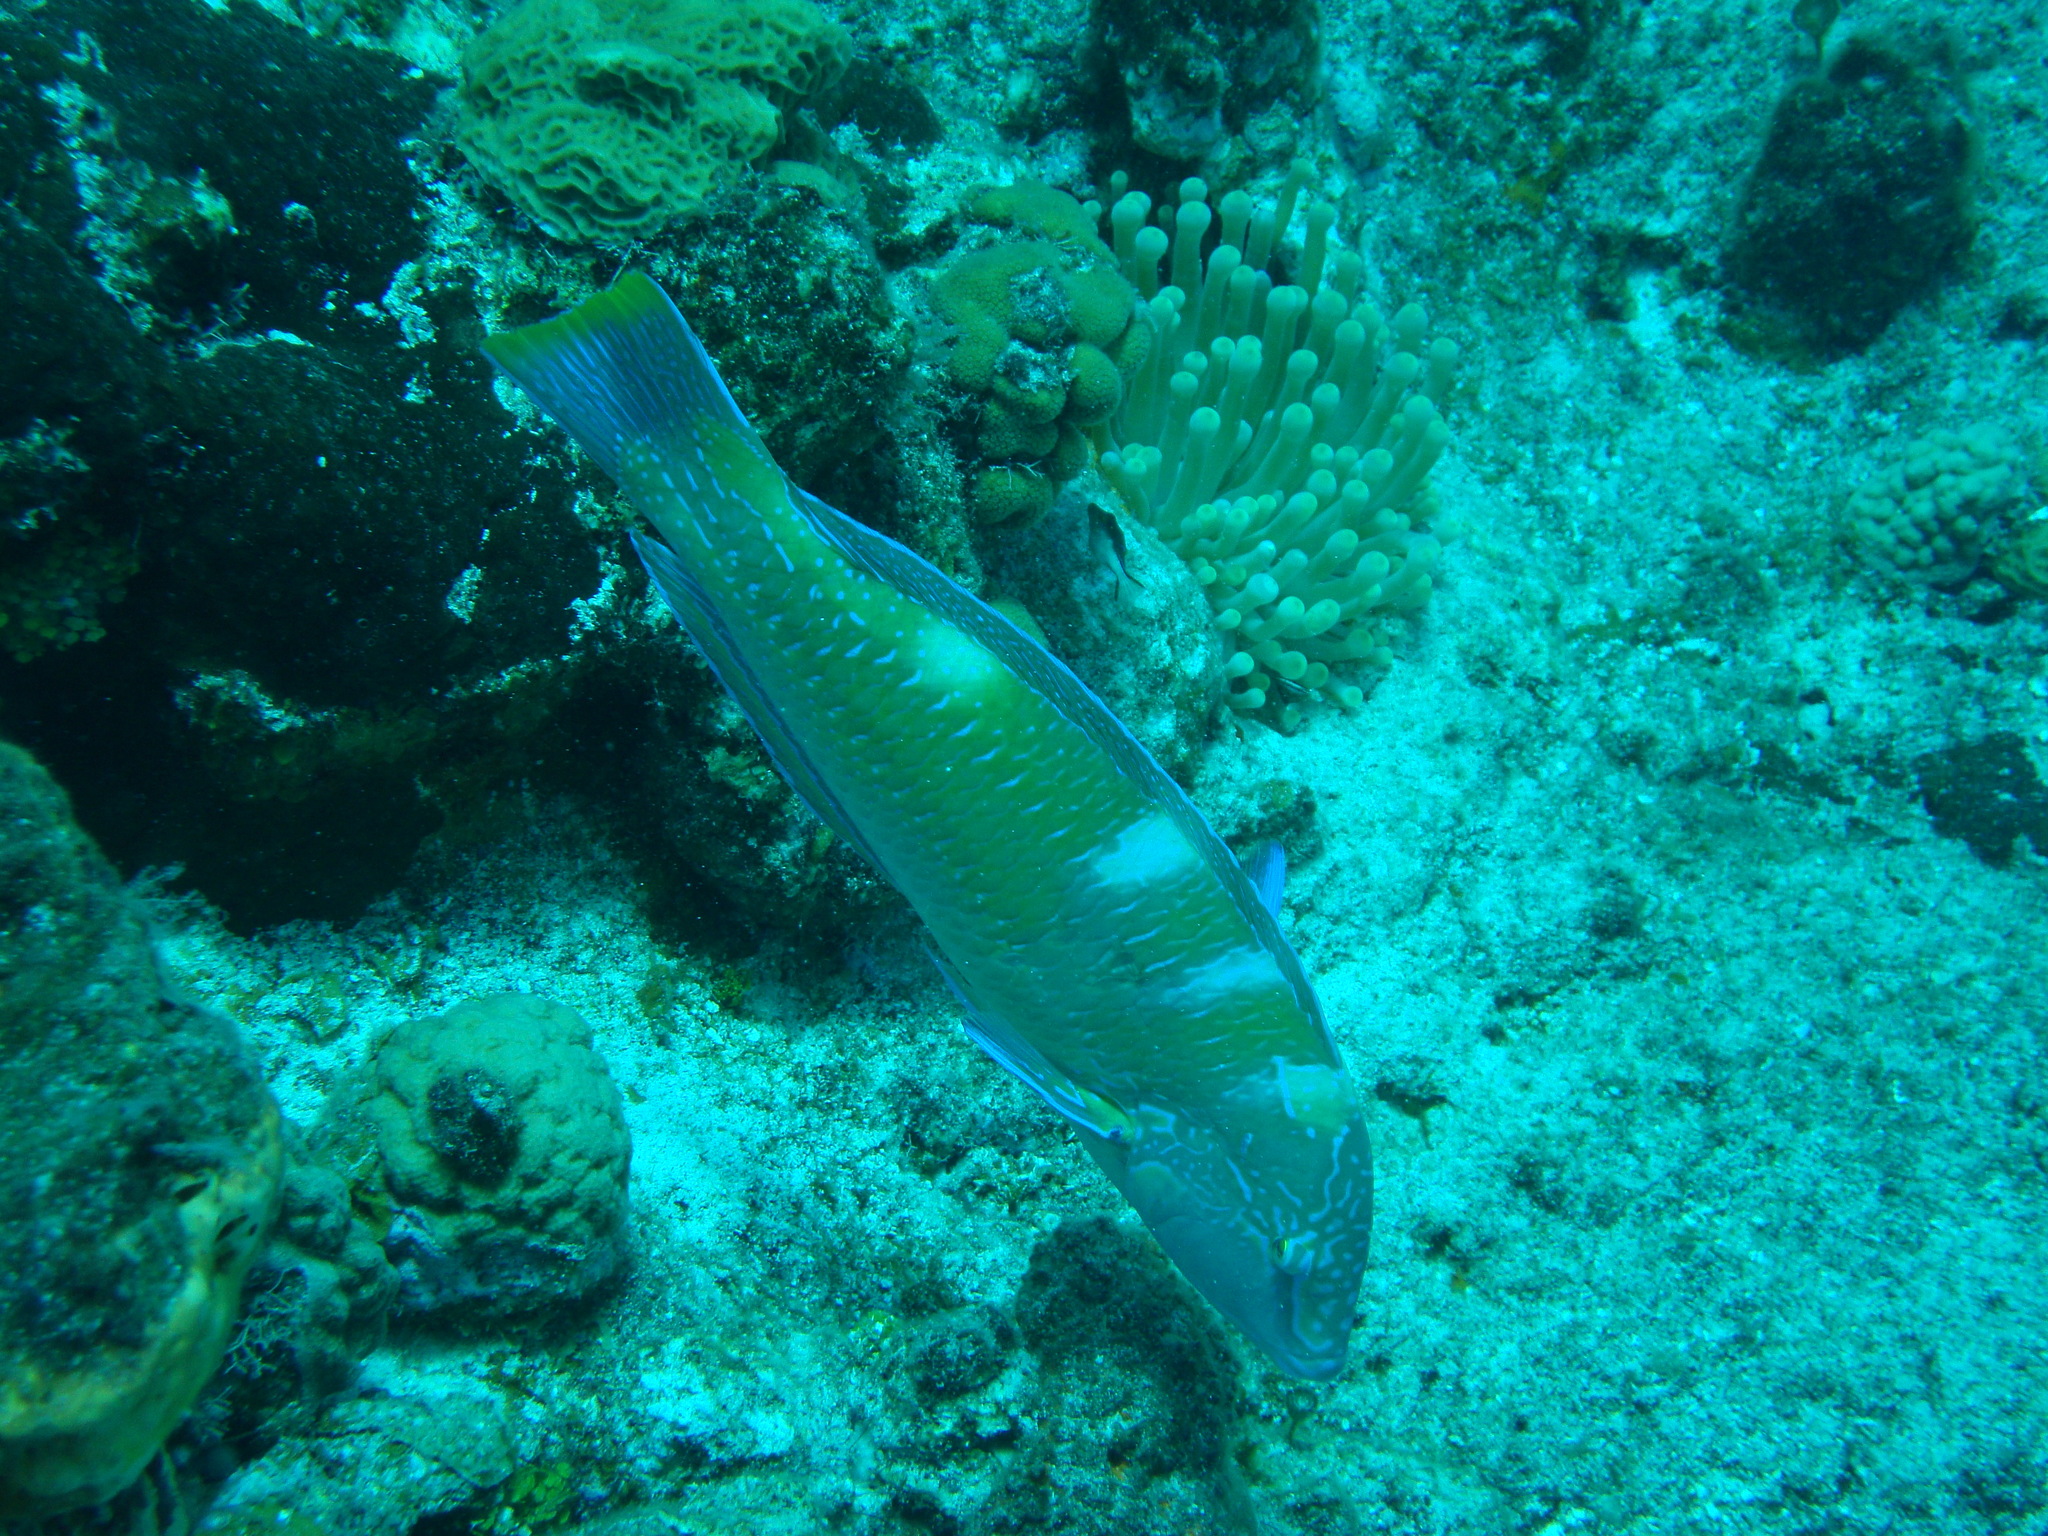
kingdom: Animalia
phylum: Chordata
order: Perciformes
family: Labridae
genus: Halichoeres
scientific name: Halichoeres radiatus
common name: Puddingwife
